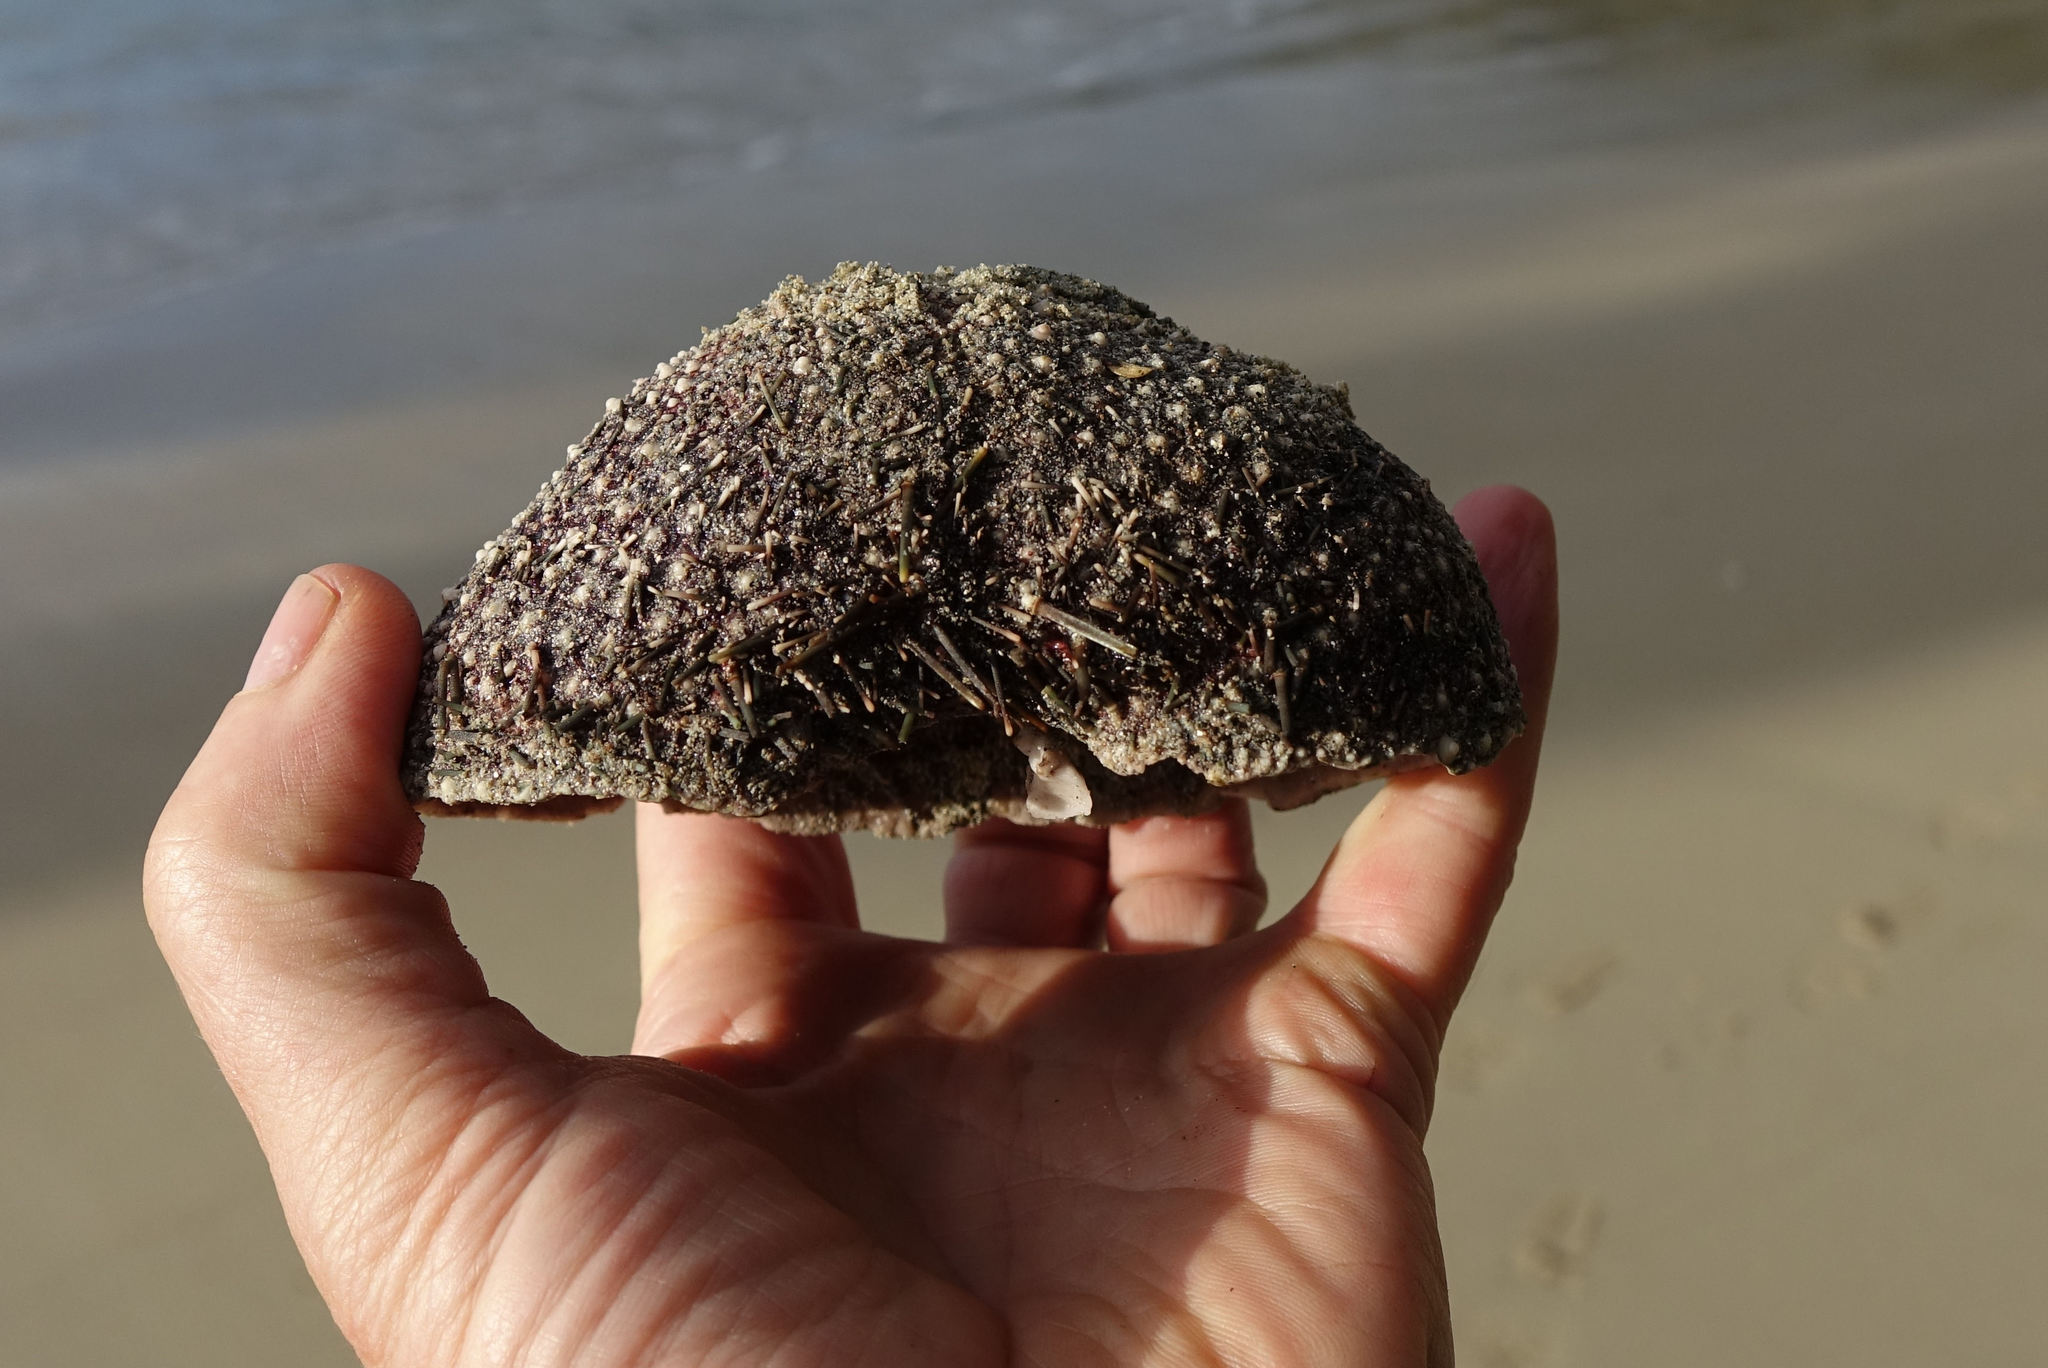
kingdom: Animalia
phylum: Echinodermata
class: Echinoidea
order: Camarodonta
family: Echinometridae
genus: Evechinus
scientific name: Evechinus chloroticus
